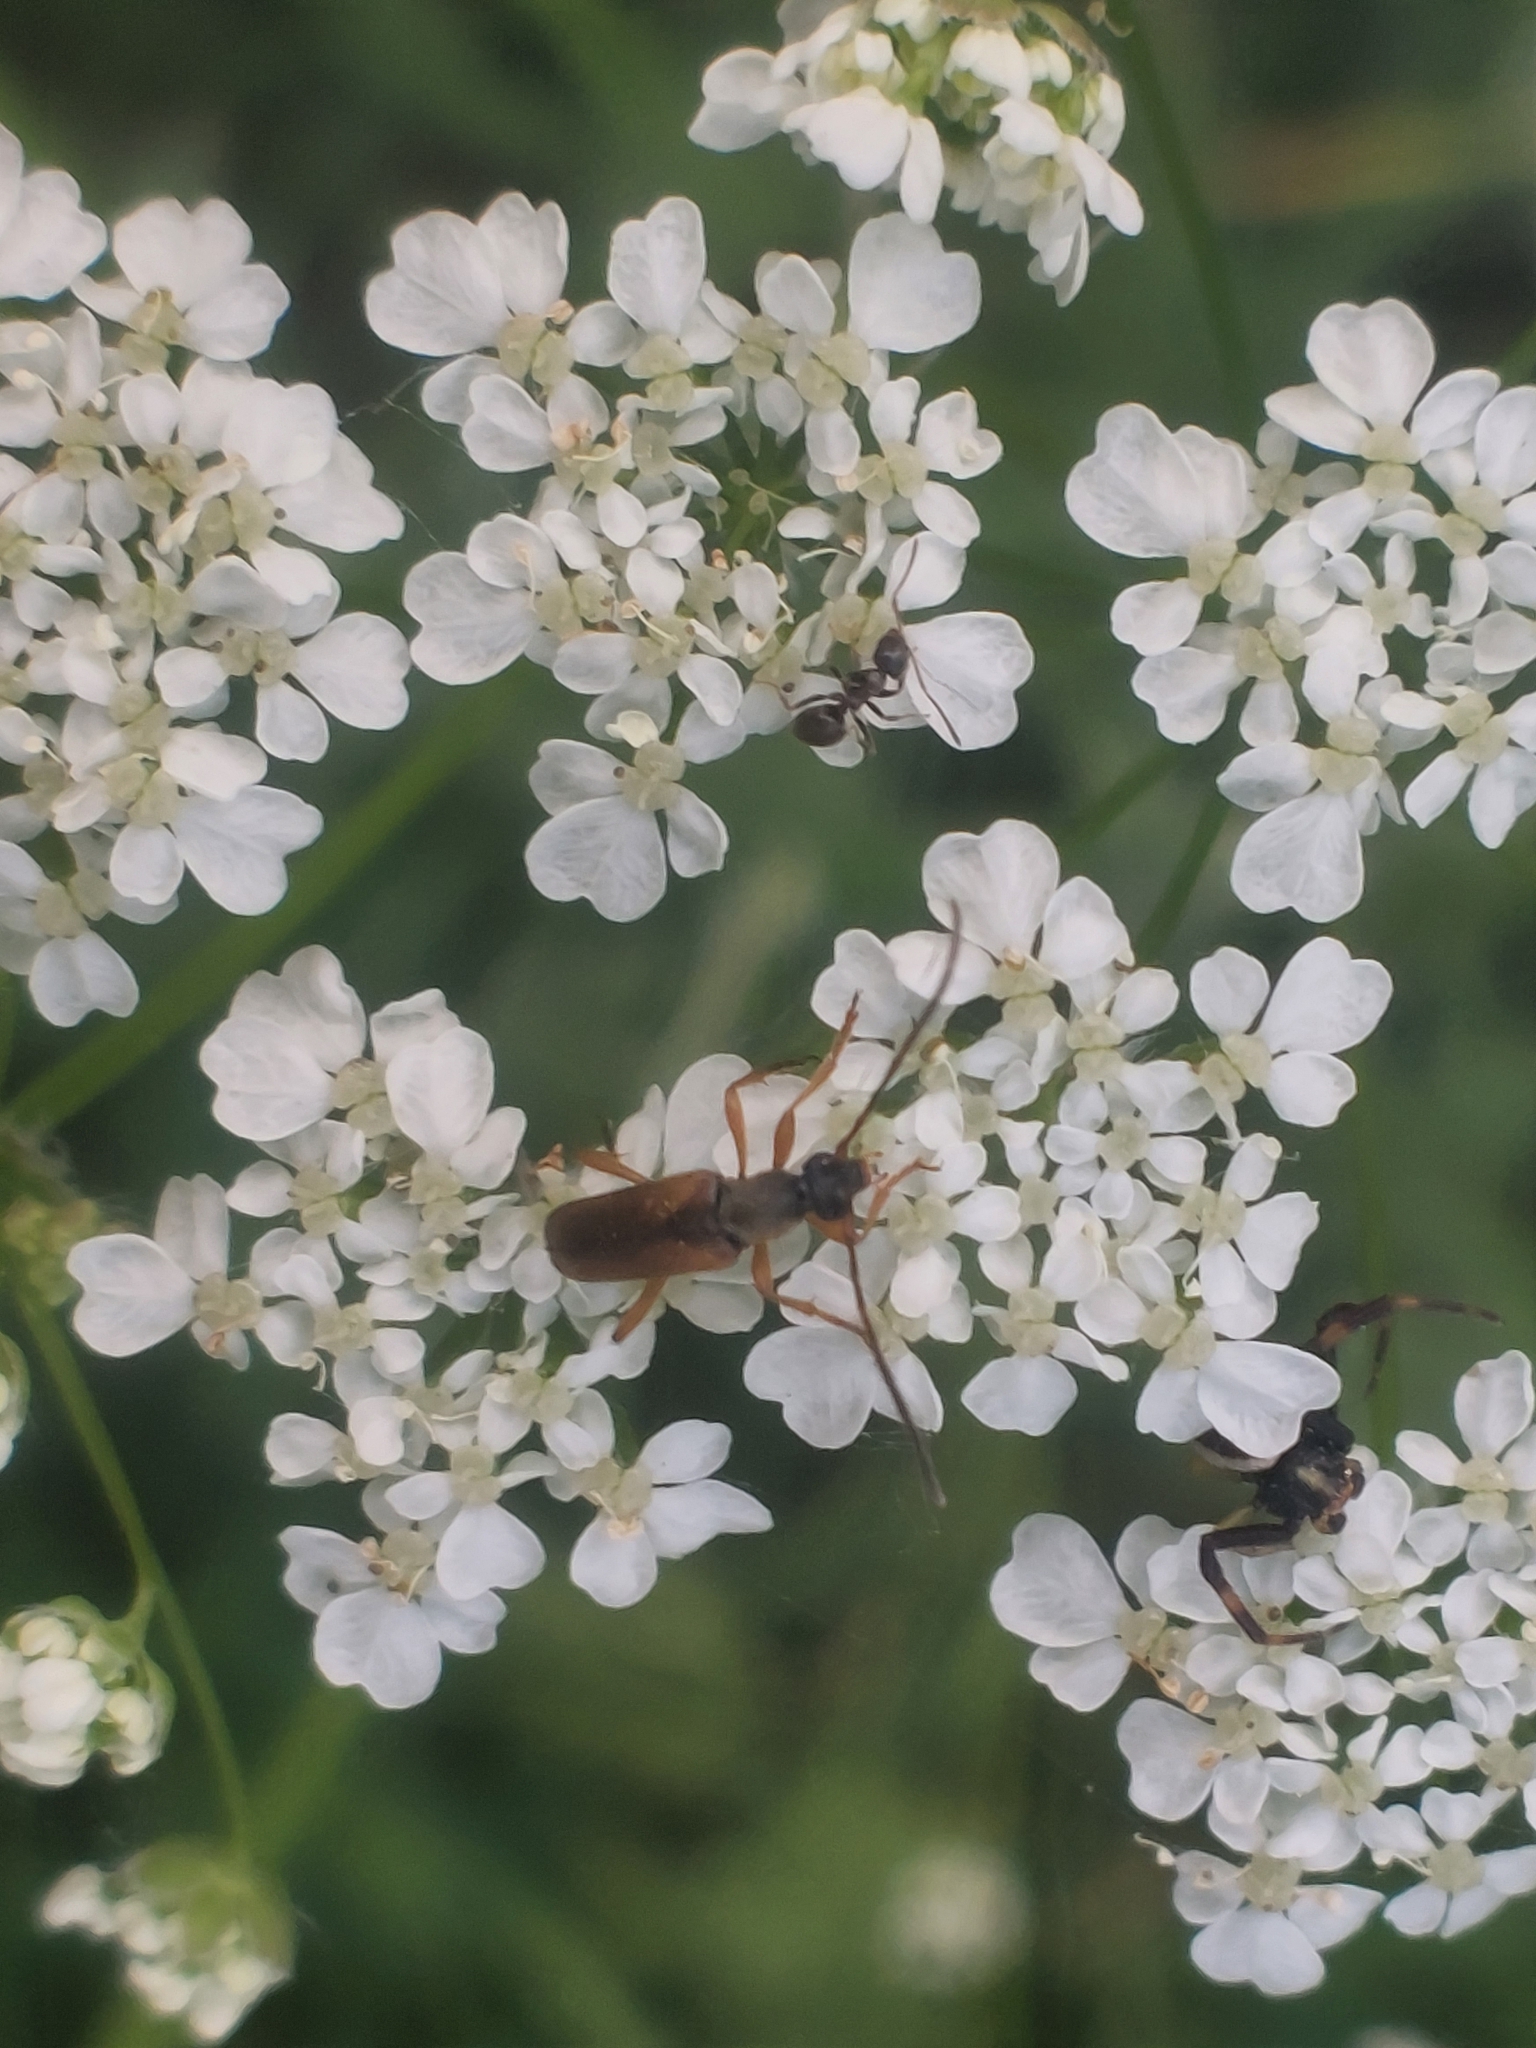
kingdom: Animalia
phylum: Arthropoda
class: Insecta
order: Coleoptera
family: Cerambycidae
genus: Alosterna
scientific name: Alosterna tabacicolor
